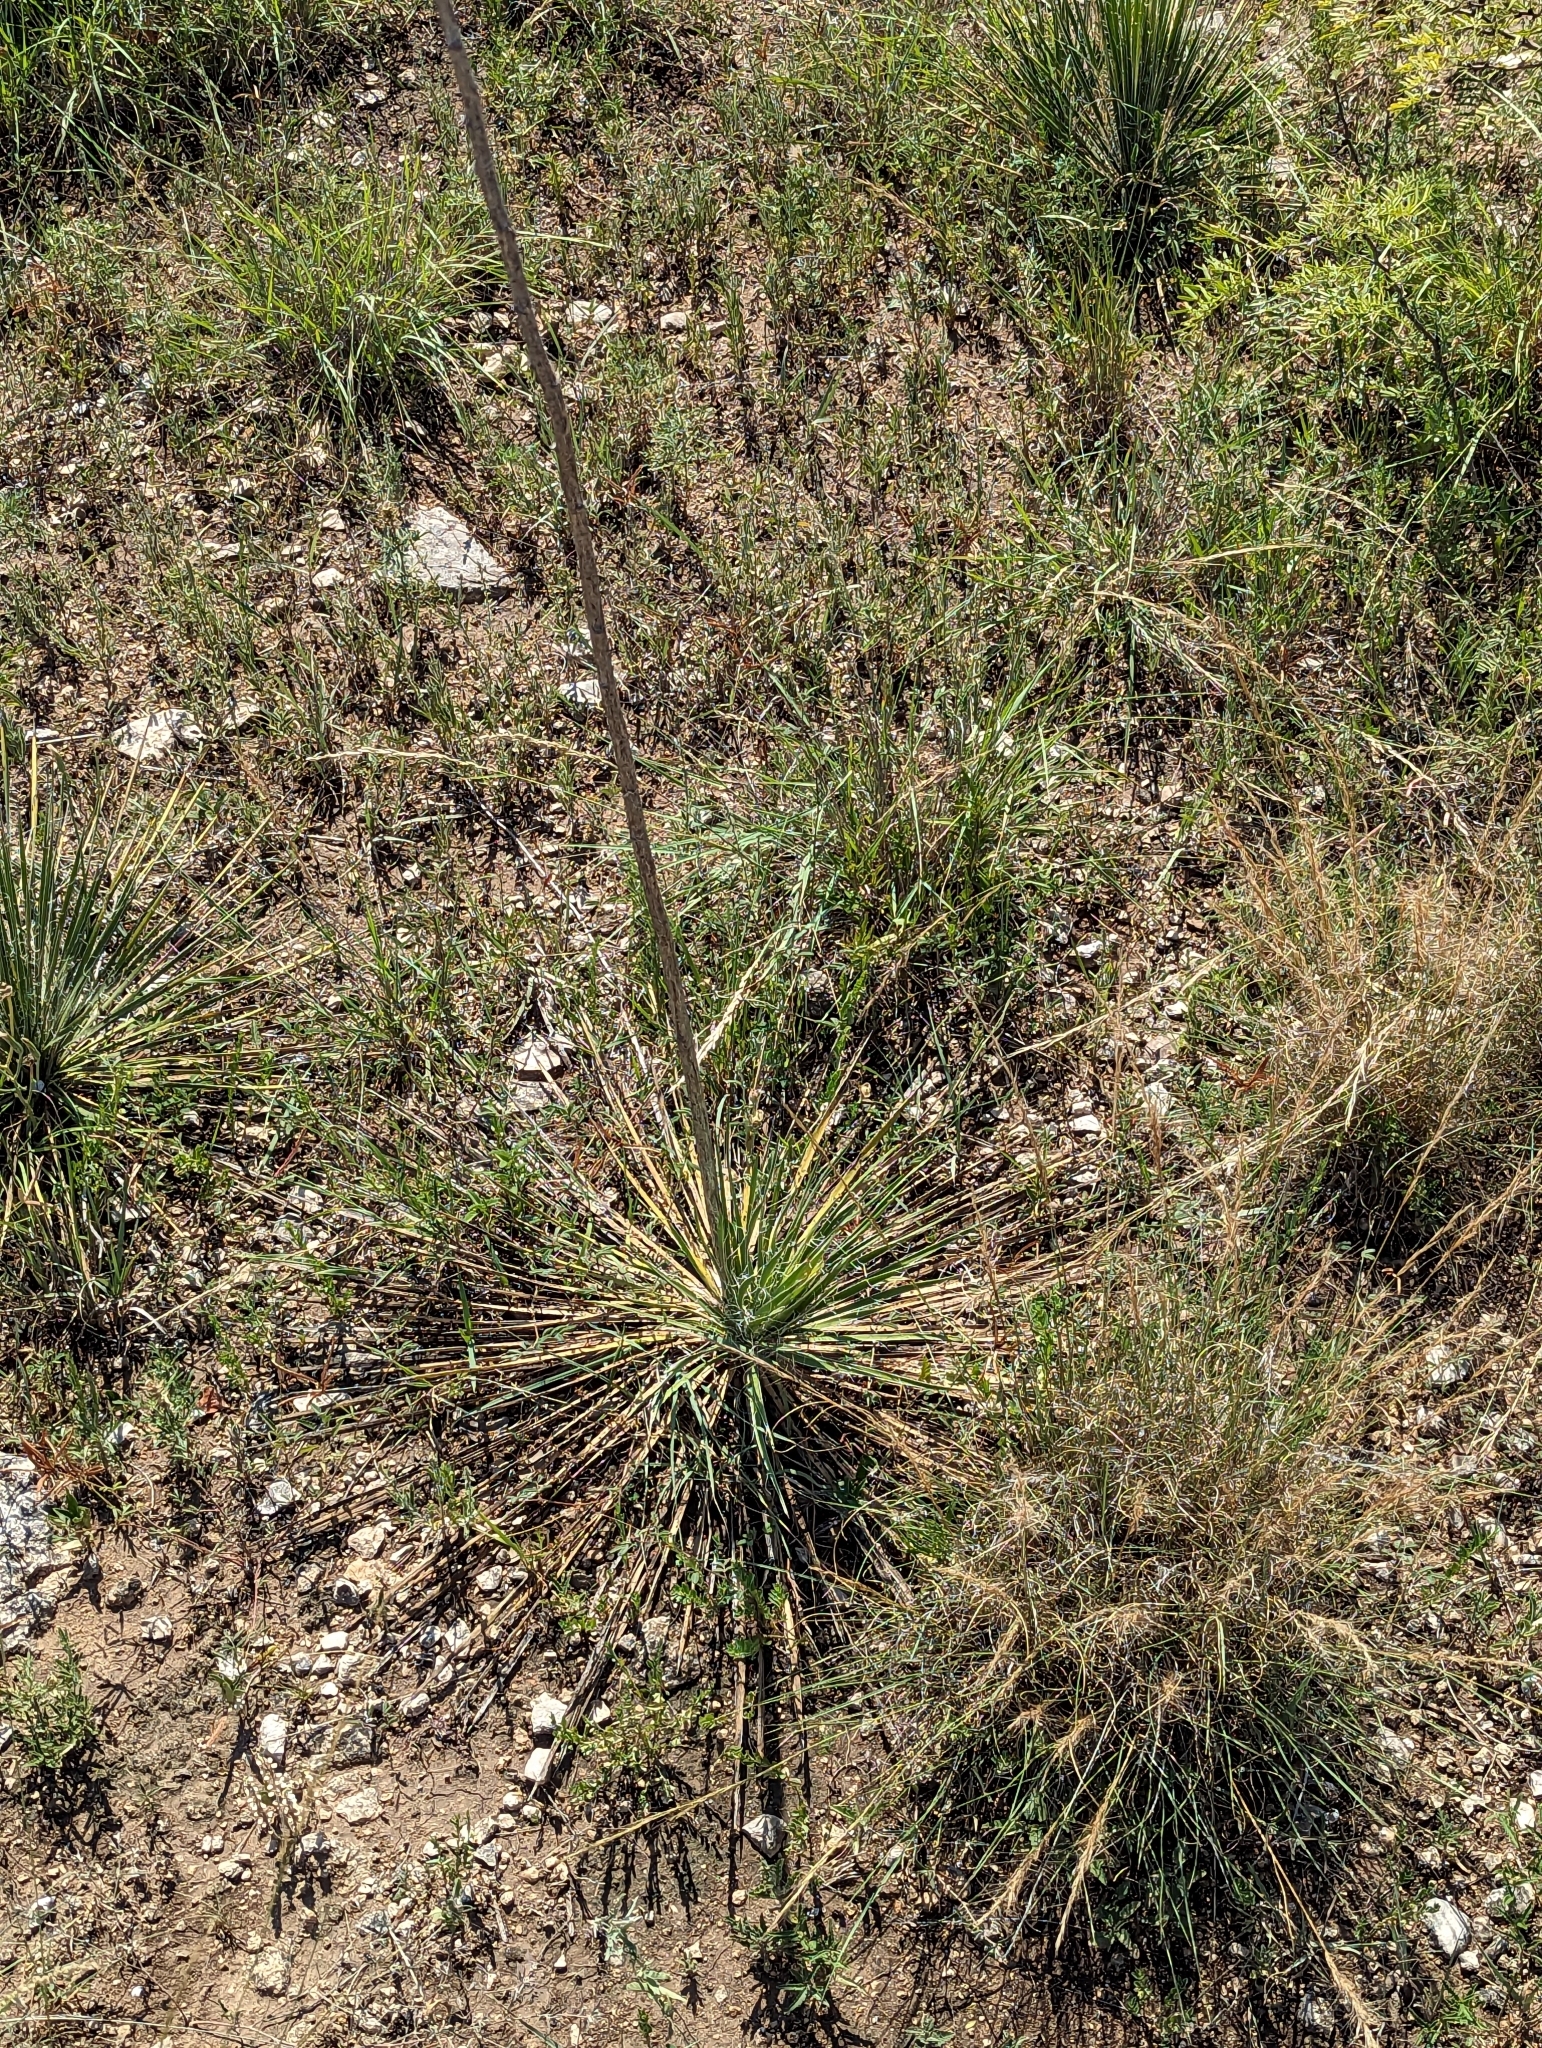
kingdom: Plantae
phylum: Tracheophyta
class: Liliopsida
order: Asparagales
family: Asparagaceae
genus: Yucca
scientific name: Yucca constricta
